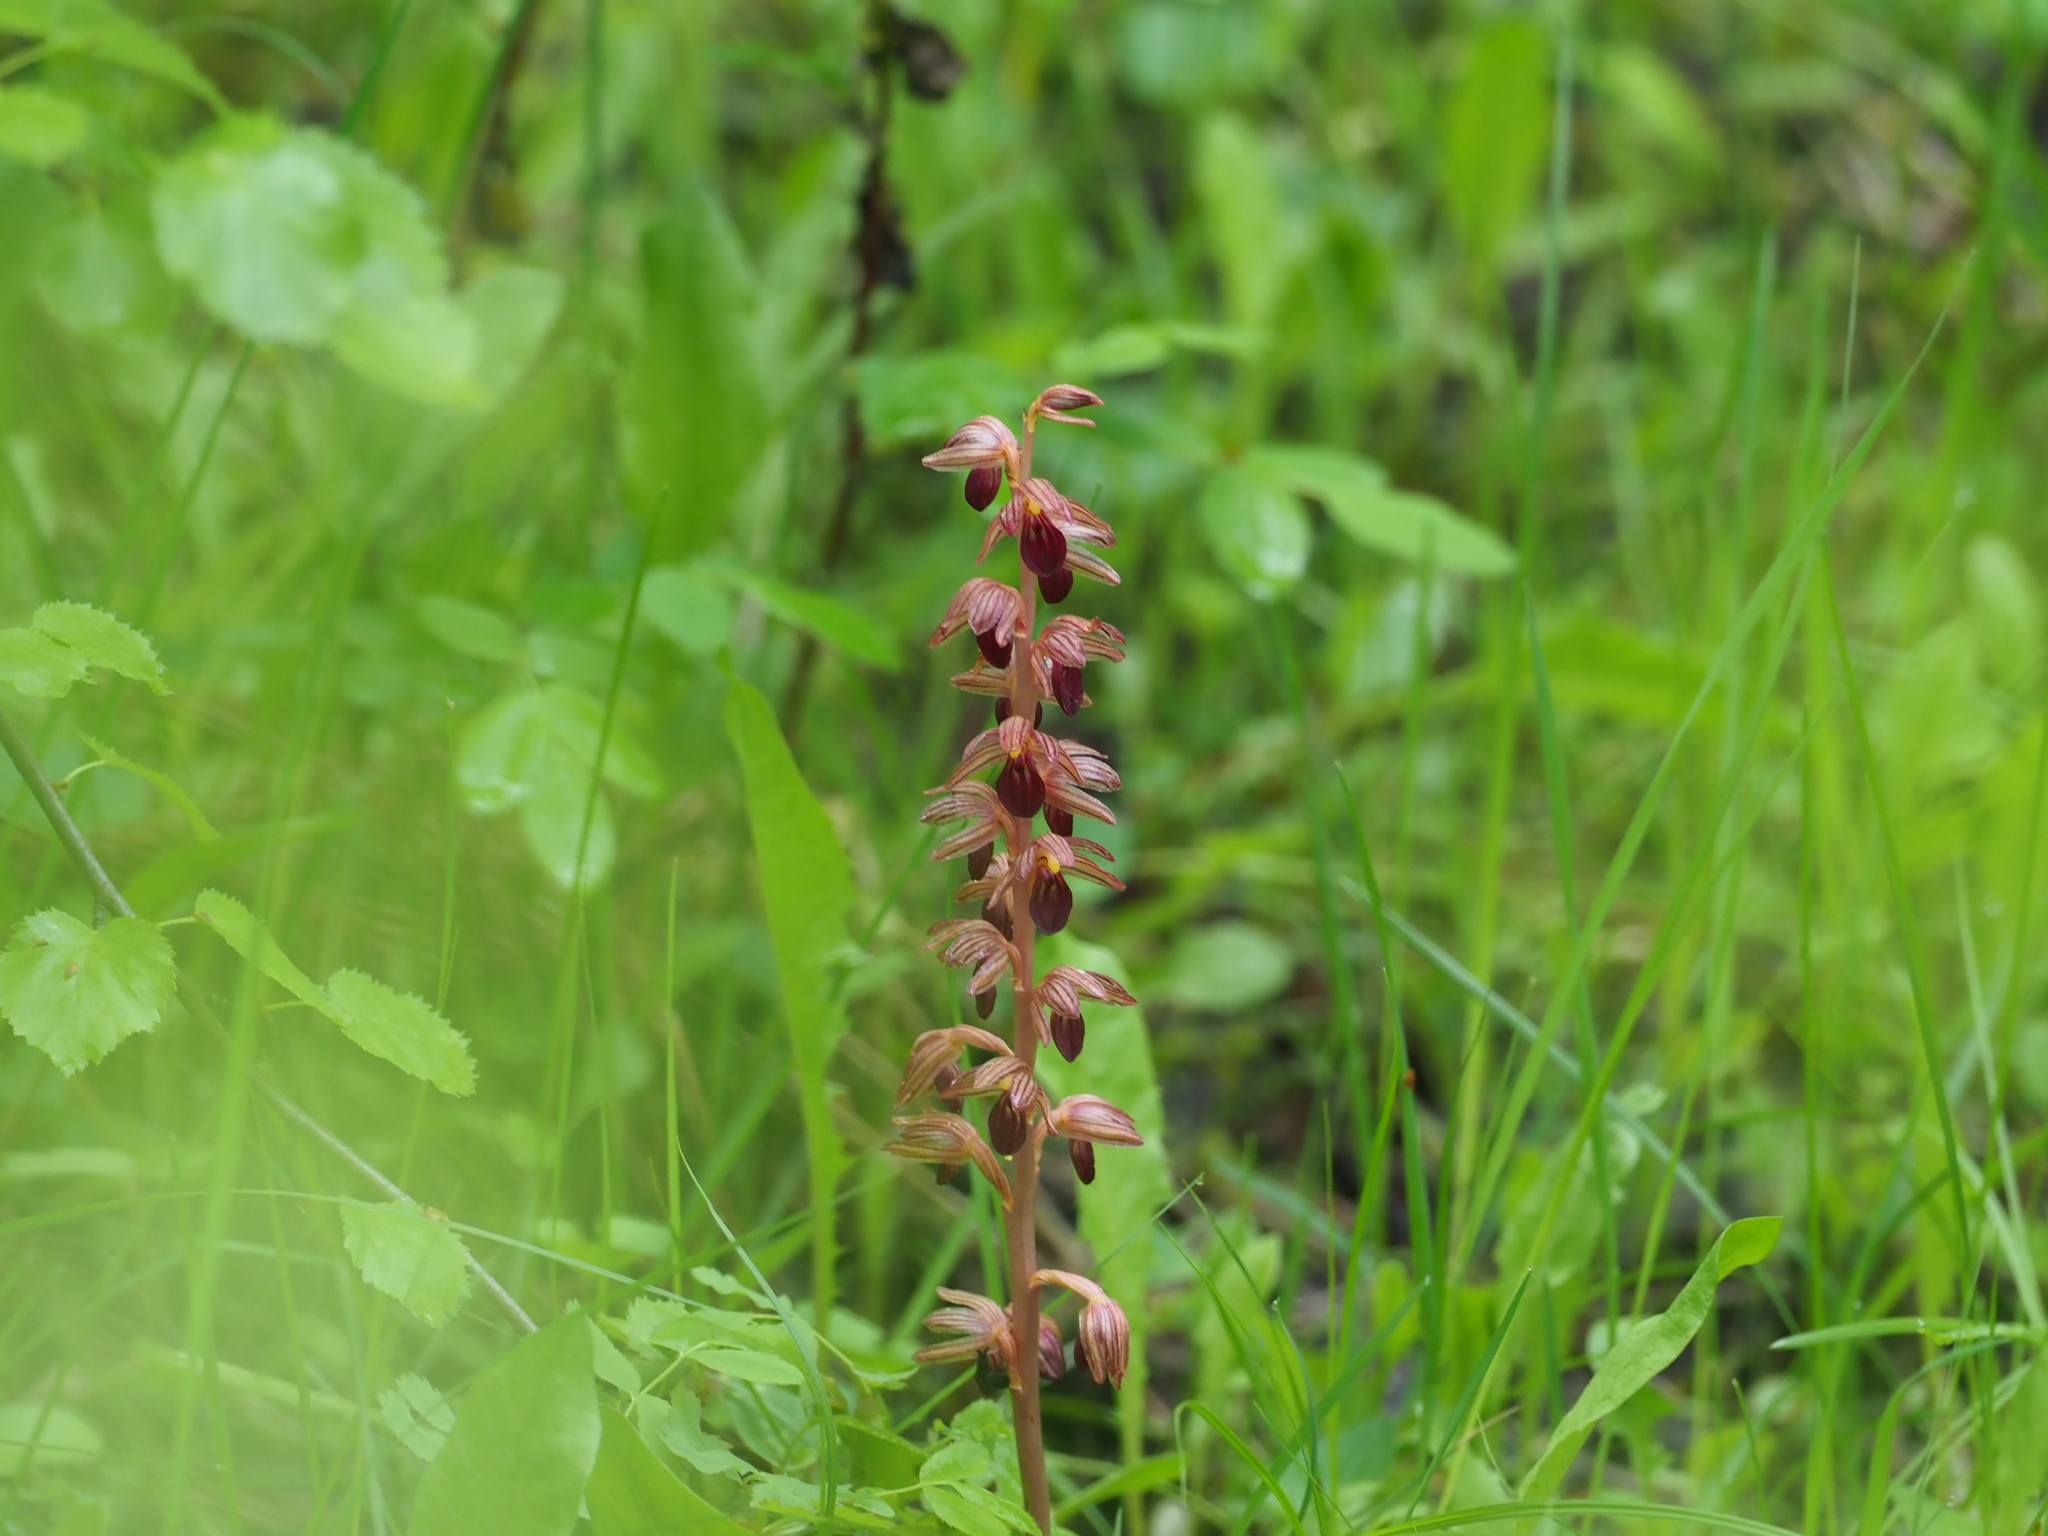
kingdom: Plantae
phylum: Tracheophyta
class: Liliopsida
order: Asparagales
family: Orchidaceae
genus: Corallorhiza
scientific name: Corallorhiza striata
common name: Hooded coralroot
